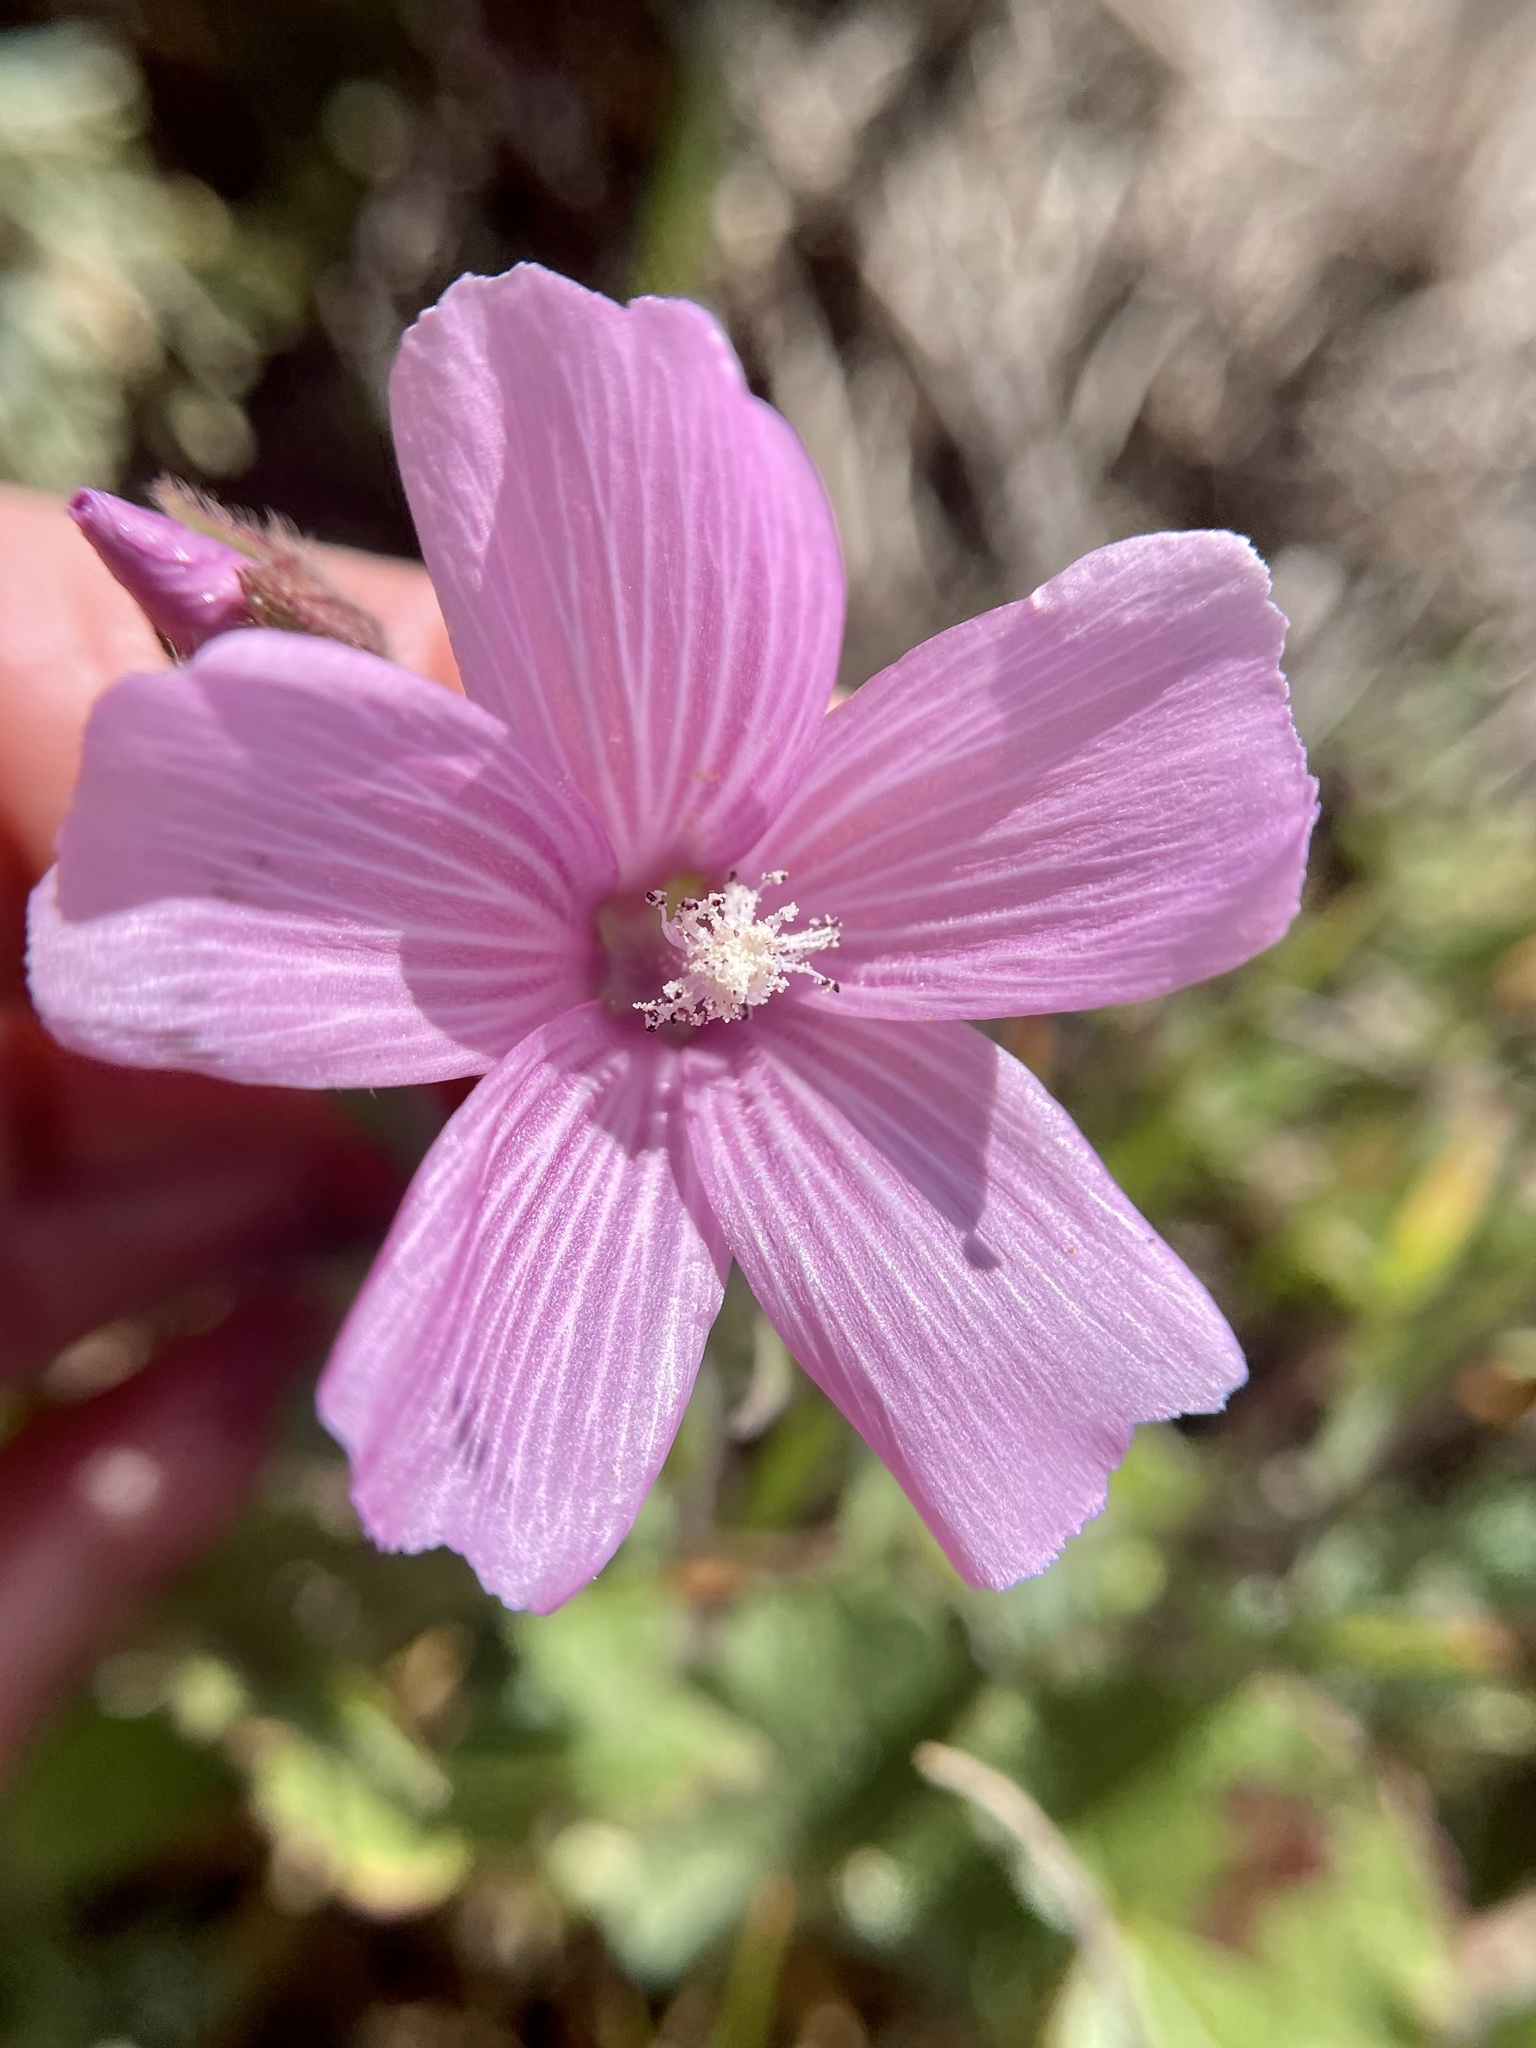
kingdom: Plantae
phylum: Tracheophyta
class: Magnoliopsida
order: Malvales
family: Malvaceae
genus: Sidalcea
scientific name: Sidalcea malviflora
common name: Greek mallow
